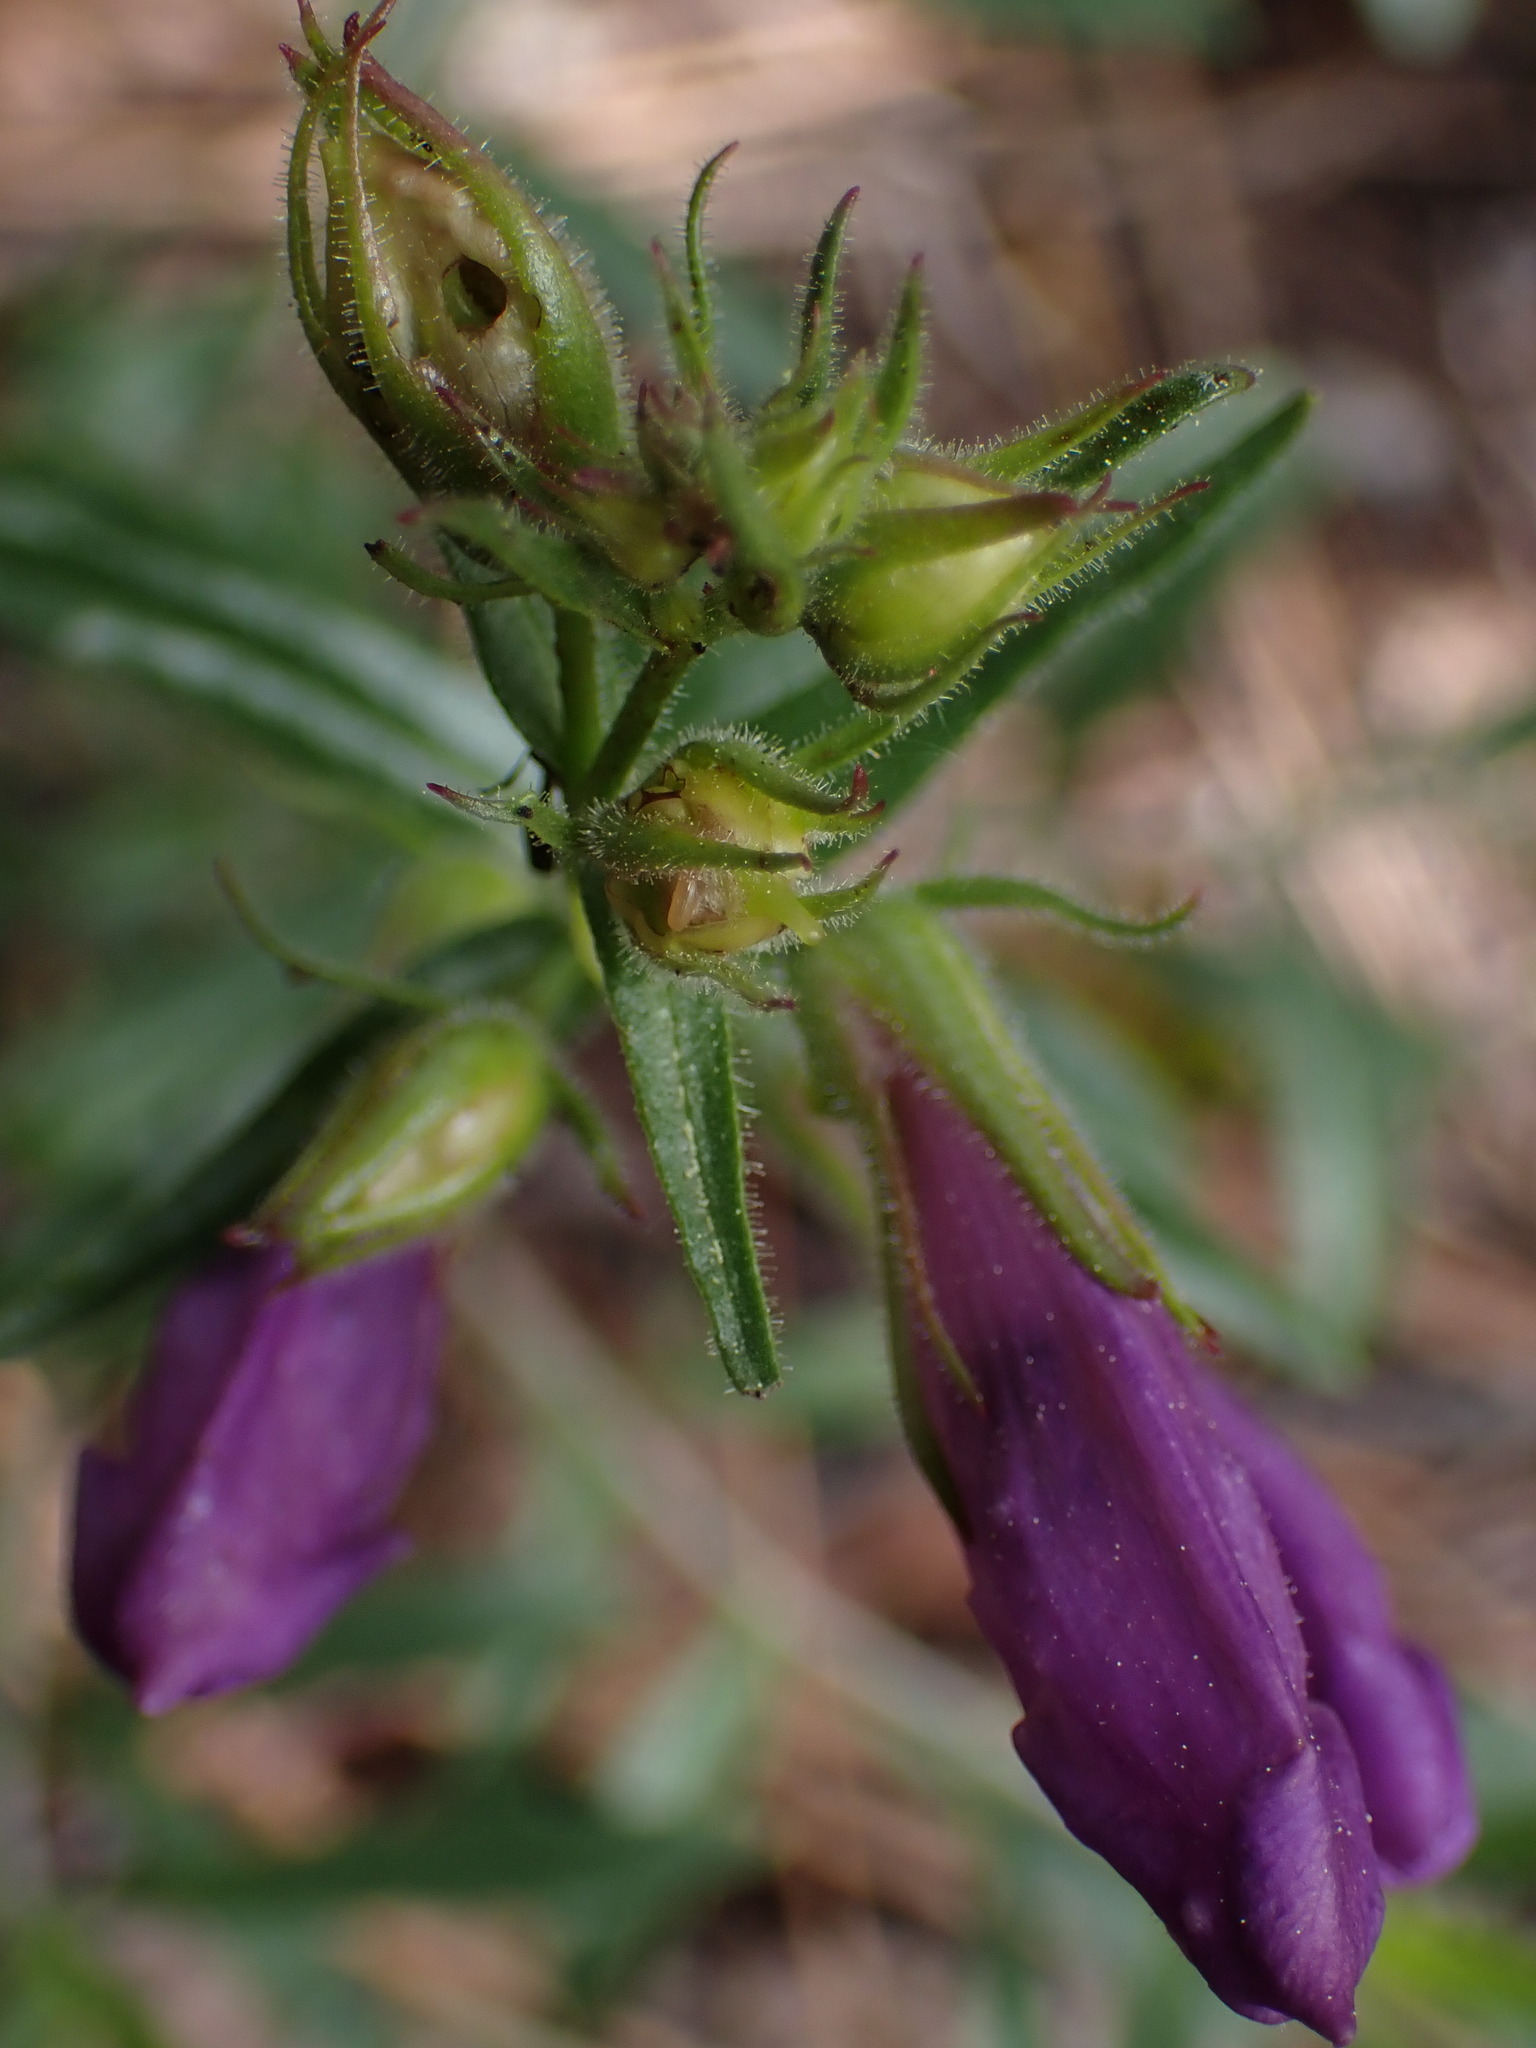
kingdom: Plantae
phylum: Tracheophyta
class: Magnoliopsida
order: Lamiales
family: Plantaginaceae
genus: Penstemon
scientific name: Penstemon fruticosus
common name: Bush penstemon
